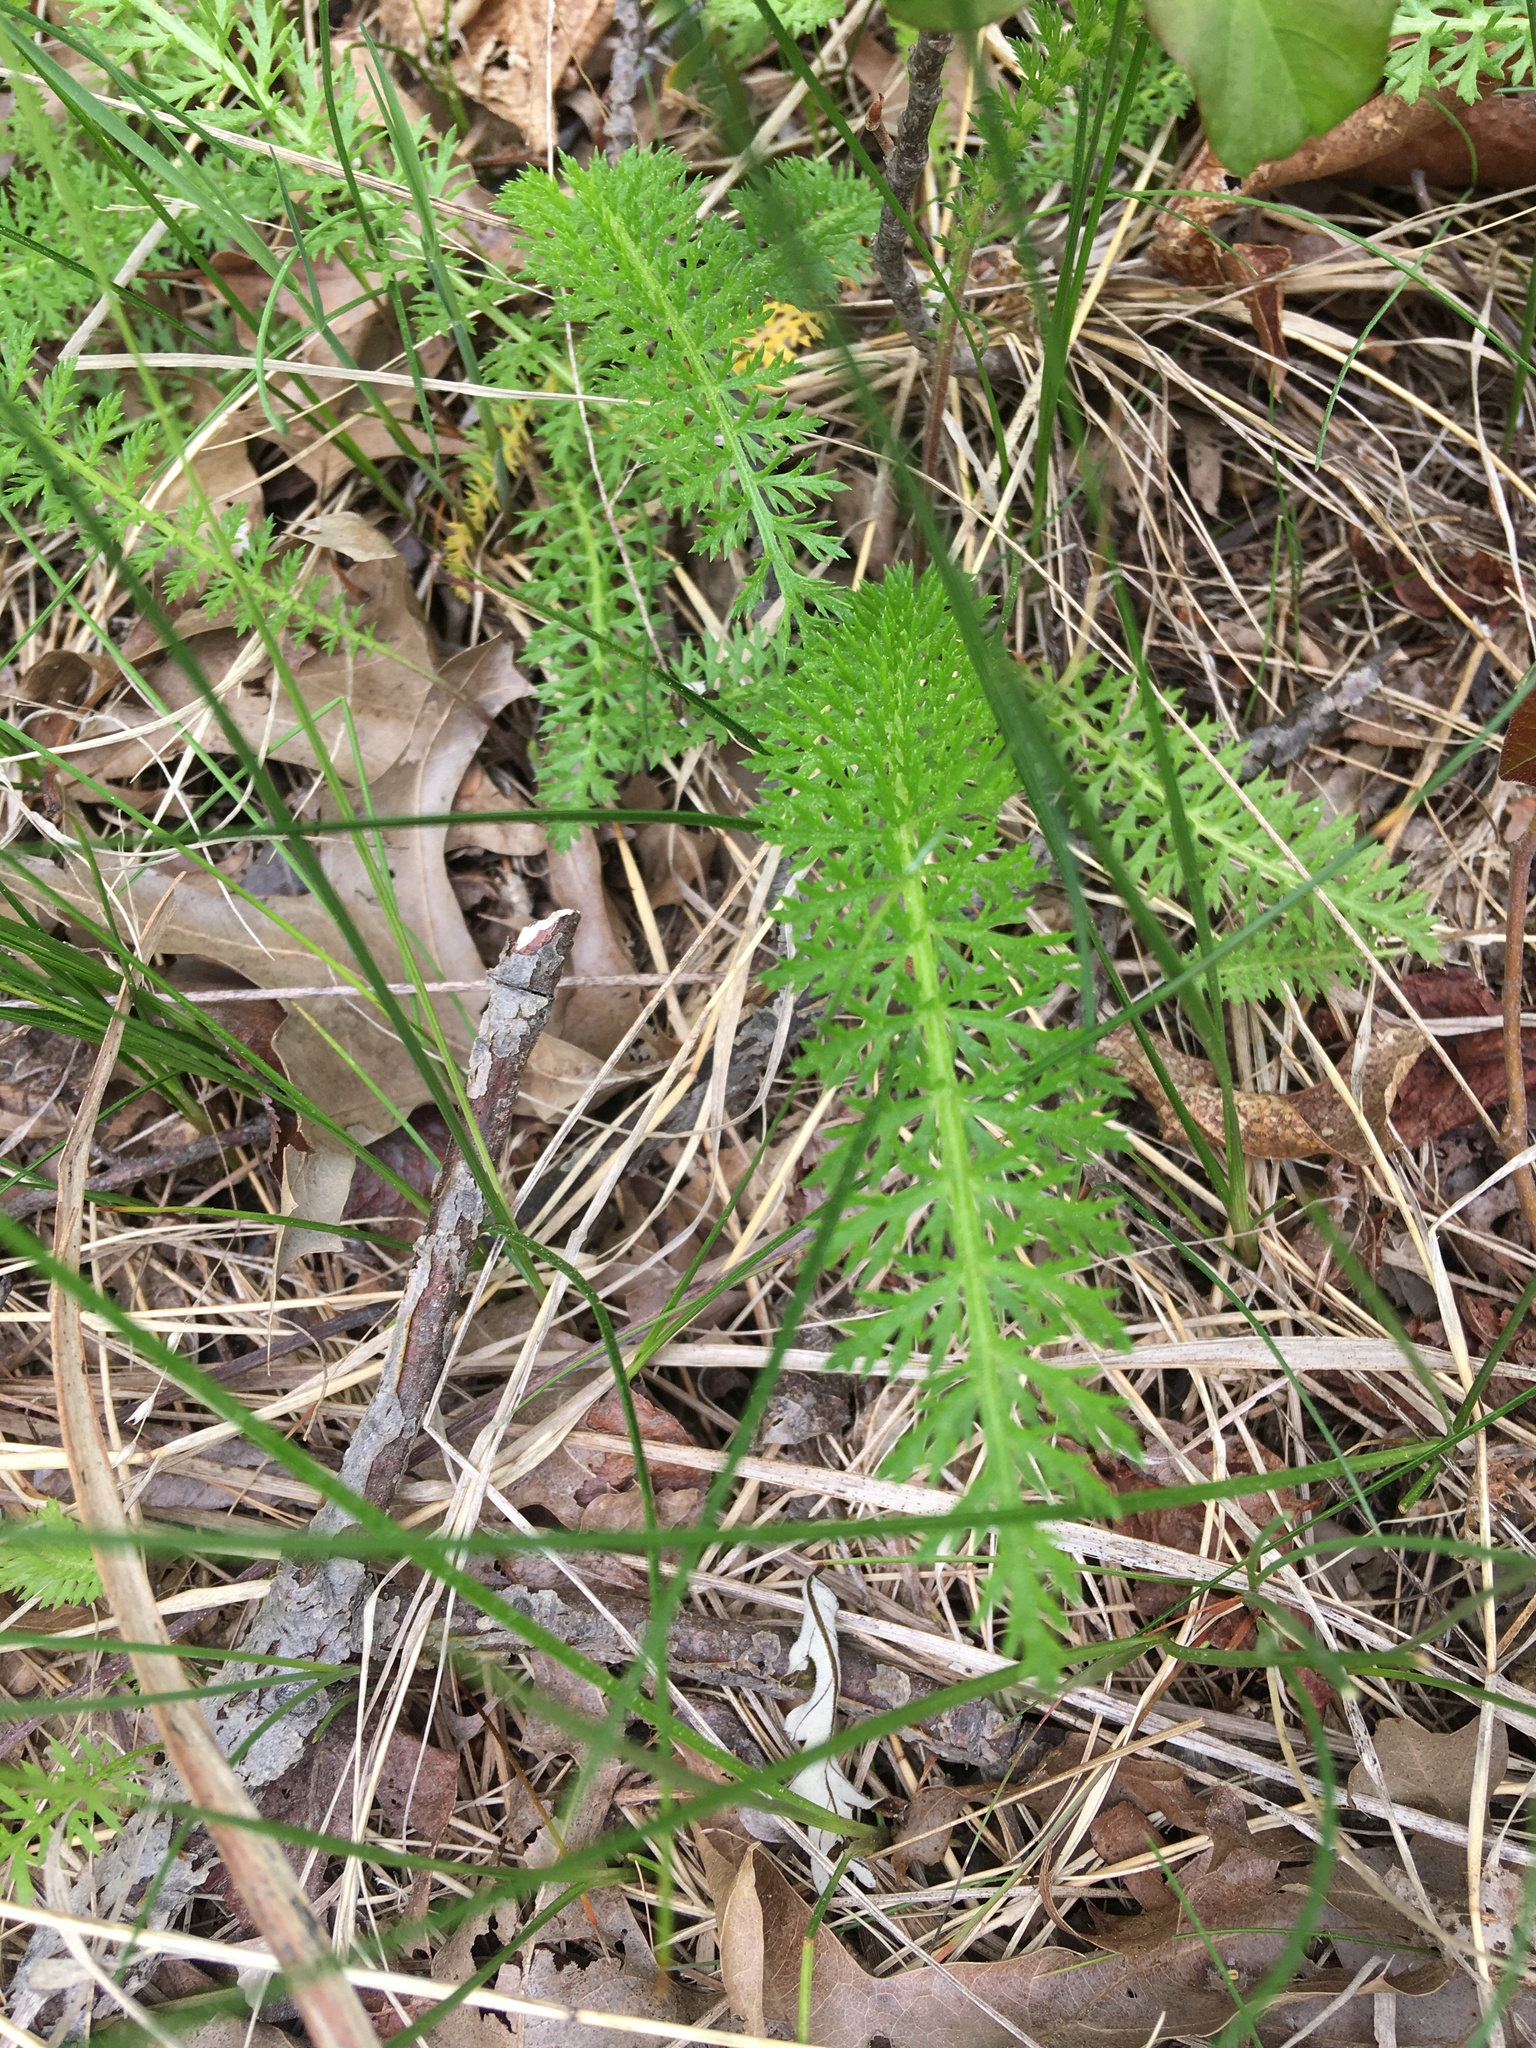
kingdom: Plantae
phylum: Tracheophyta
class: Magnoliopsida
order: Asterales
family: Asteraceae
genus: Achillea
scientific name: Achillea millefolium
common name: Yarrow
